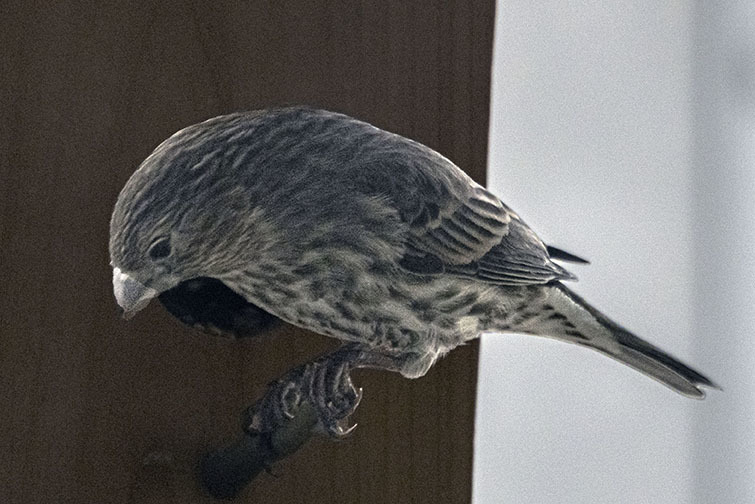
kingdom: Animalia
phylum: Chordata
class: Aves
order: Passeriformes
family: Fringillidae
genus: Haemorhous
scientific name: Haemorhous mexicanus
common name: House finch
